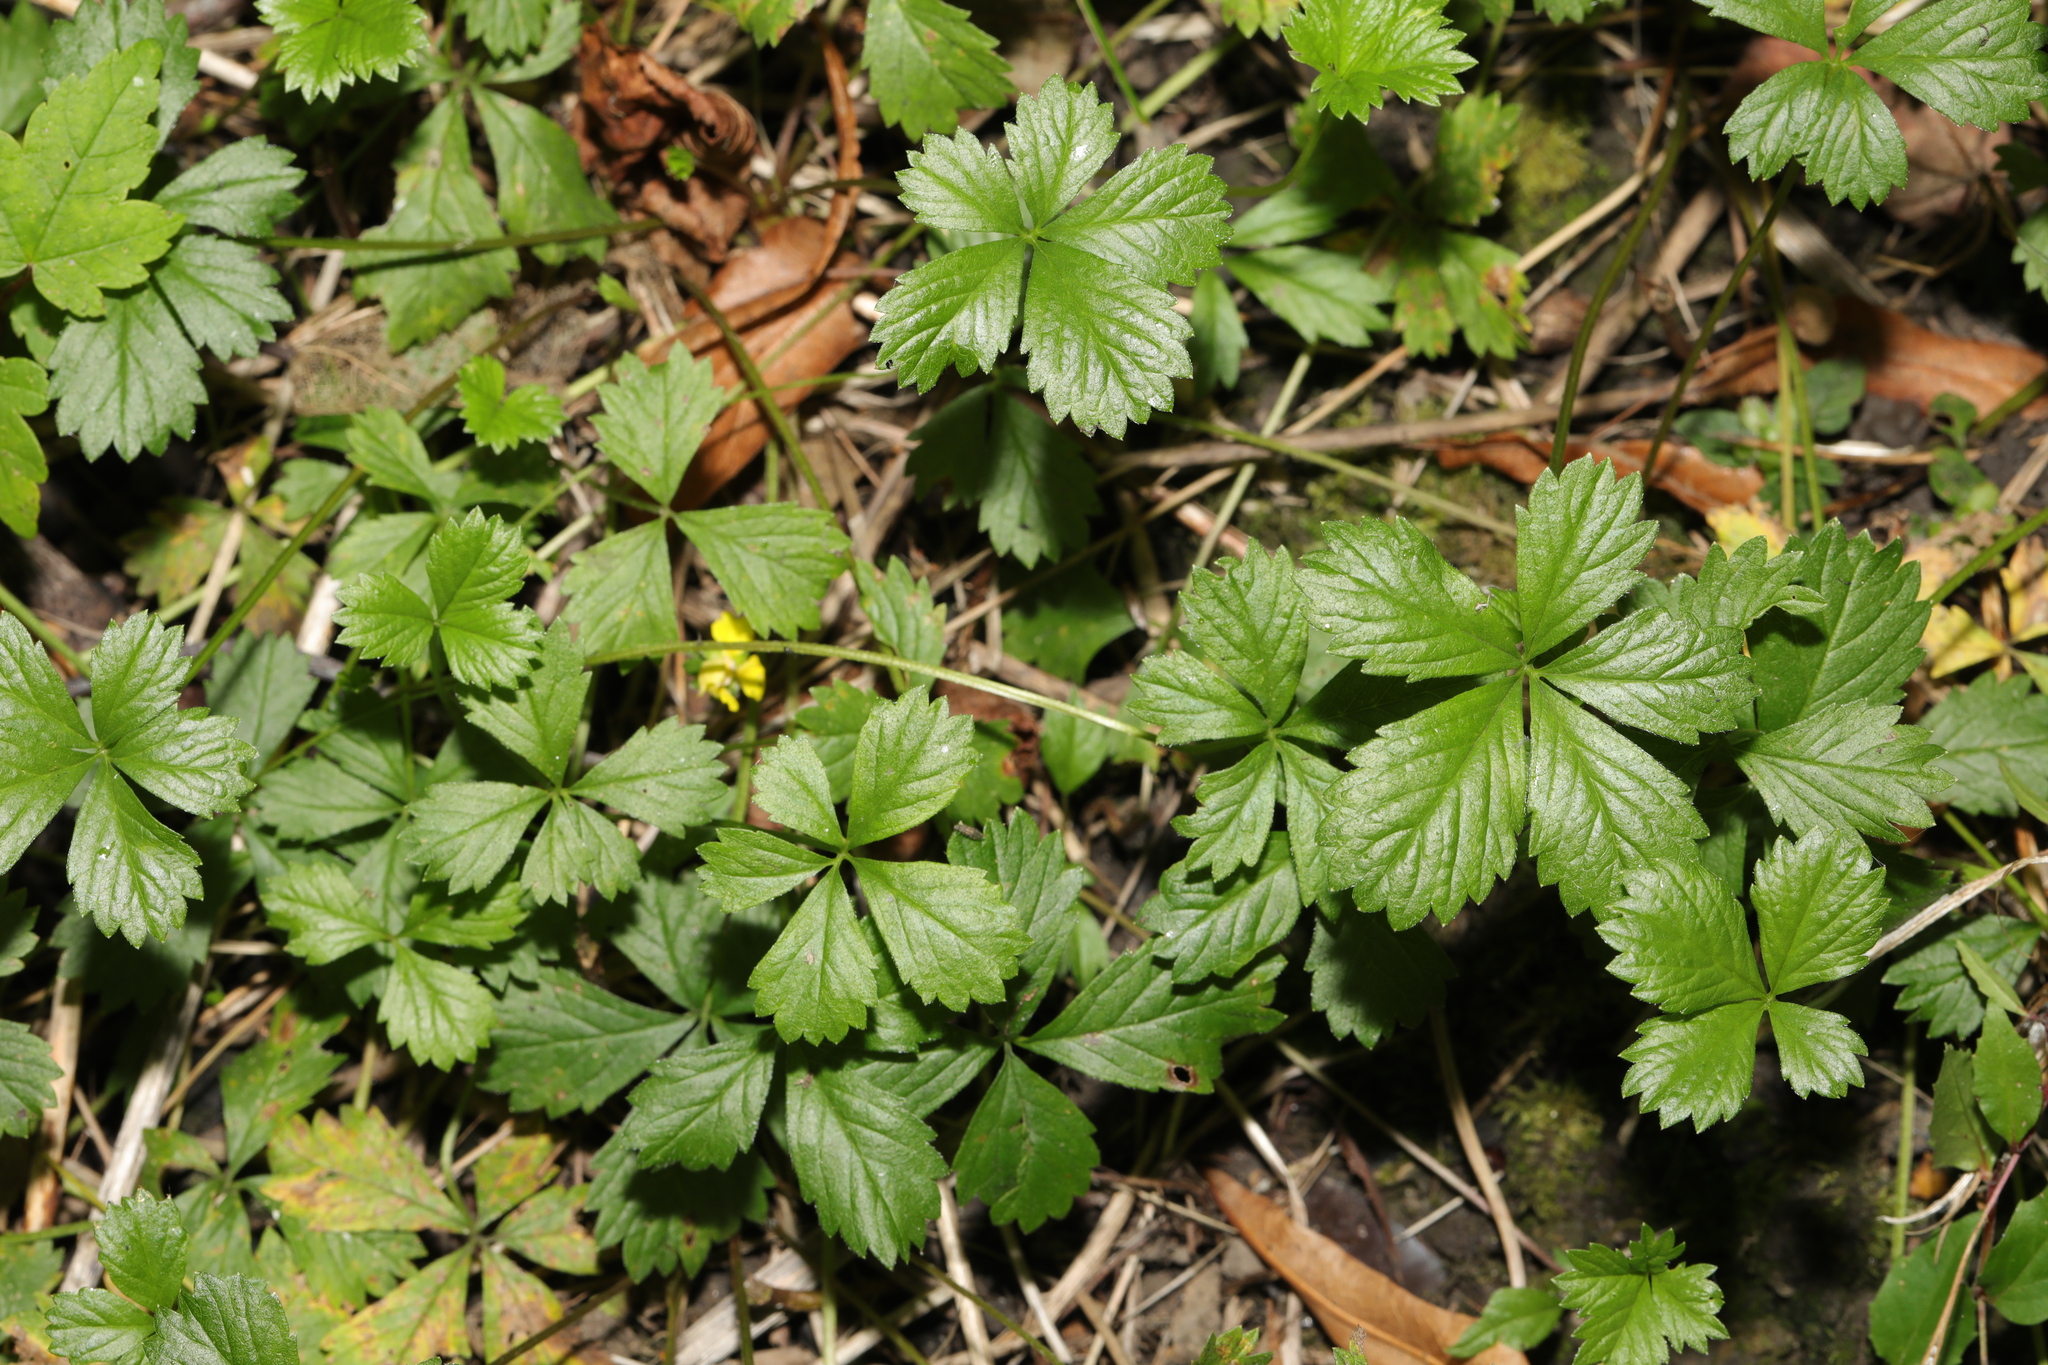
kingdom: Plantae
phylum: Tracheophyta
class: Magnoliopsida
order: Rosales
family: Rosaceae
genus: Potentilla
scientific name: Potentilla mixta
